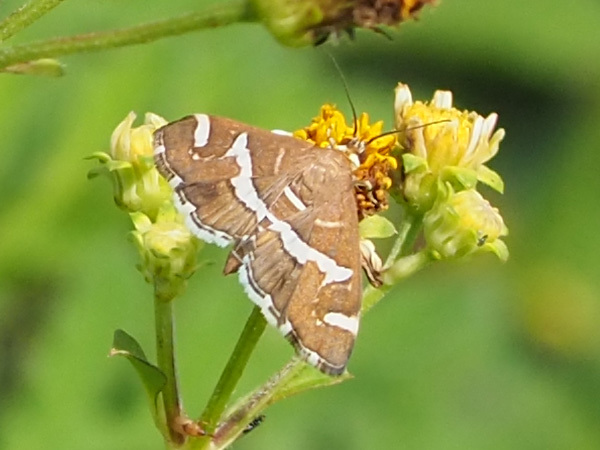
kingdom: Animalia
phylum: Arthropoda
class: Insecta
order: Lepidoptera
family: Crambidae
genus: Spoladea
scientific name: Spoladea recurvalis
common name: Beet webworm moth
